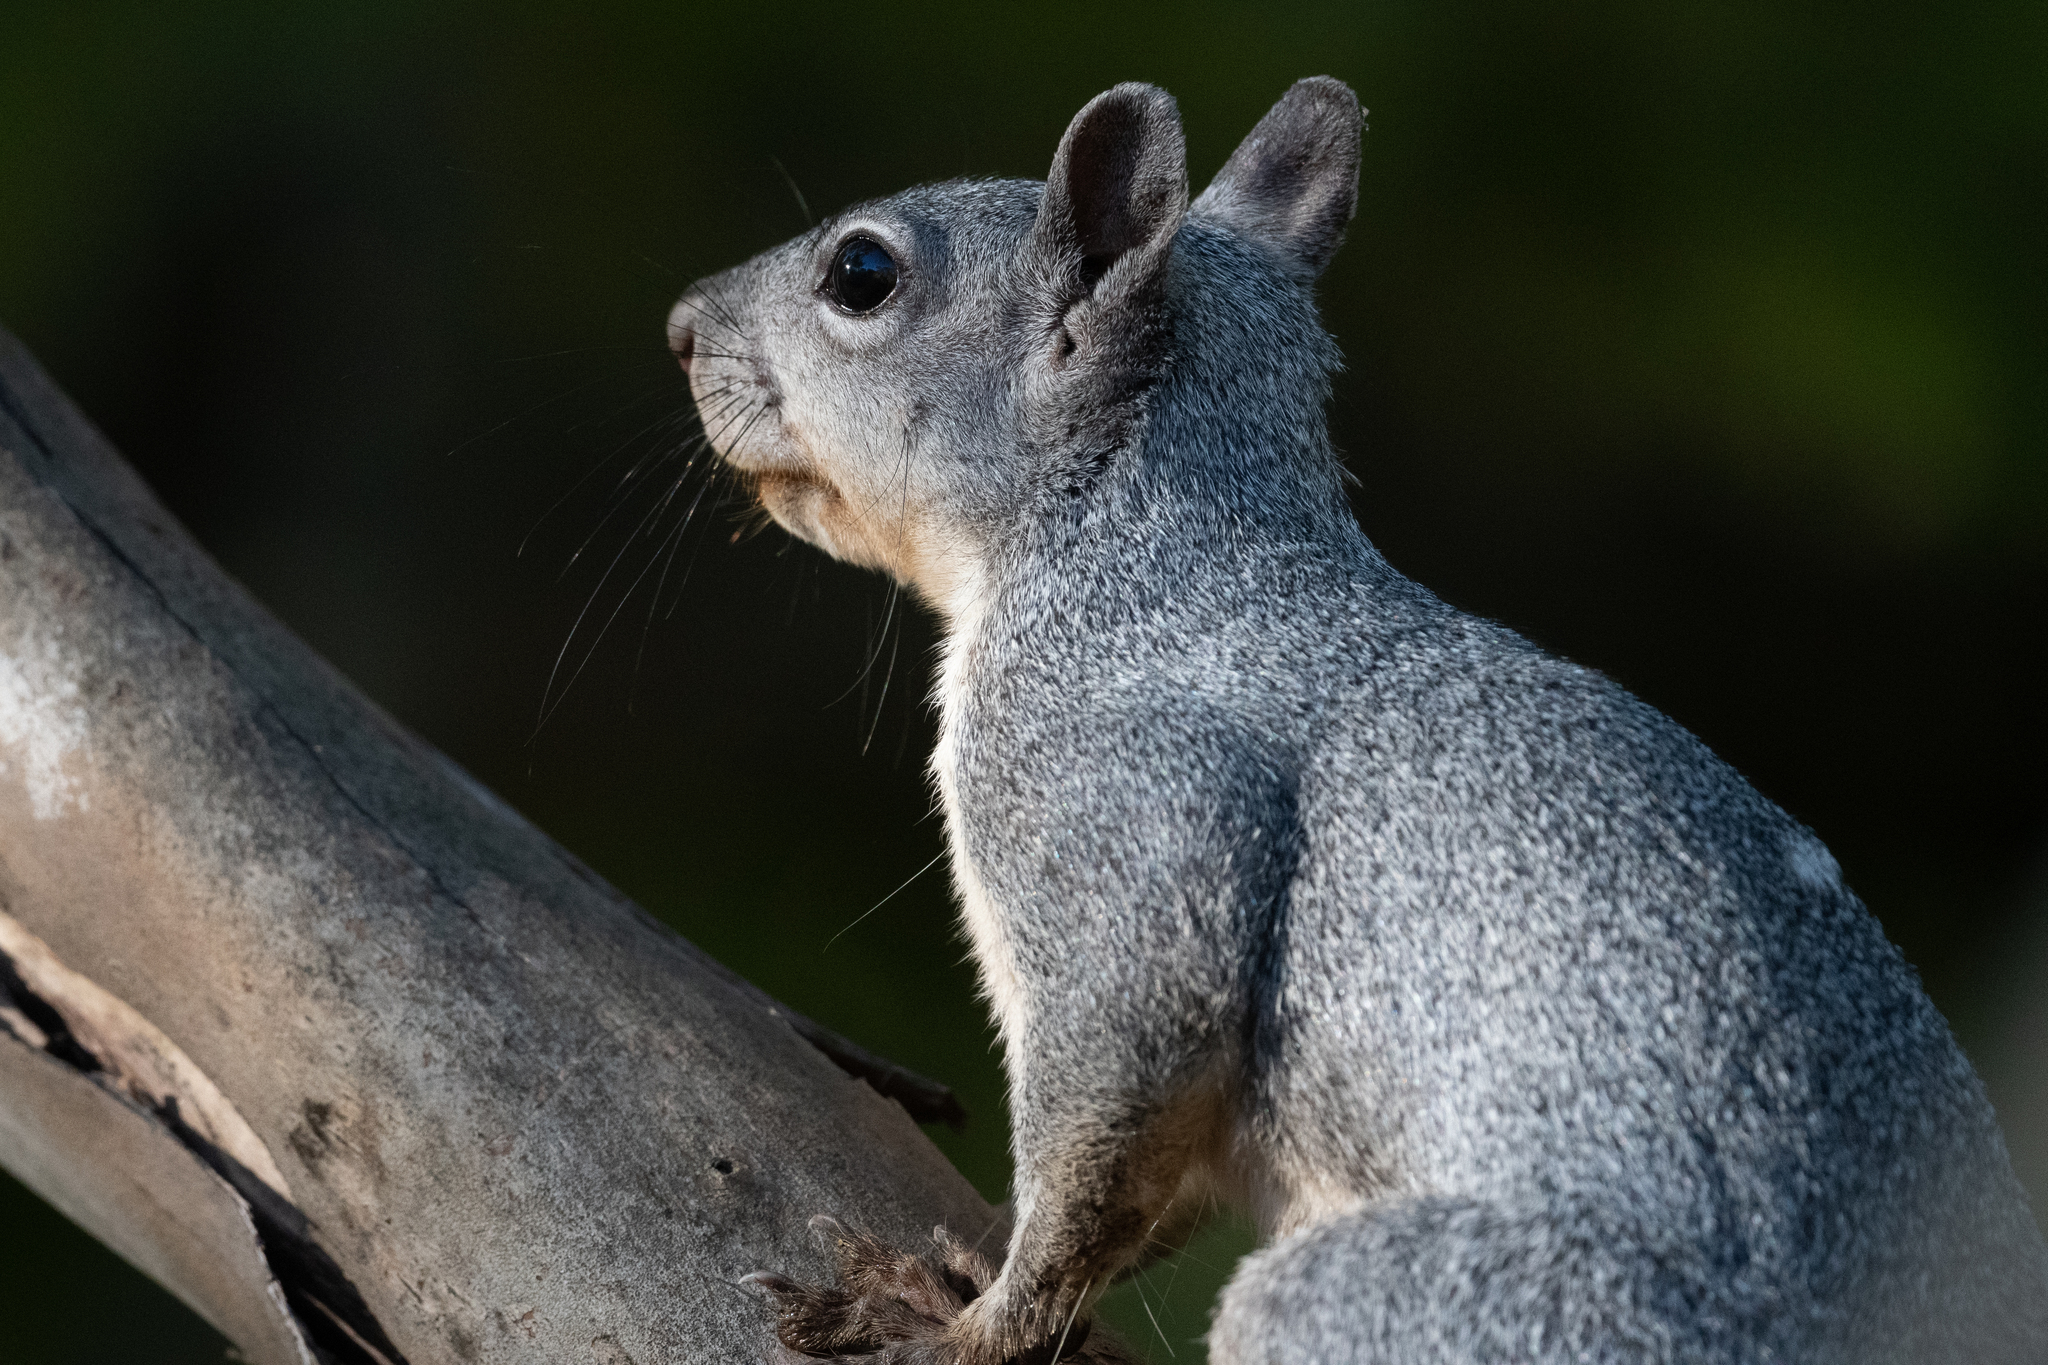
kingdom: Animalia
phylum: Chordata
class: Mammalia
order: Rodentia
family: Sciuridae
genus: Sciurus
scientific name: Sciurus griseus
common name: Western gray squirrel
